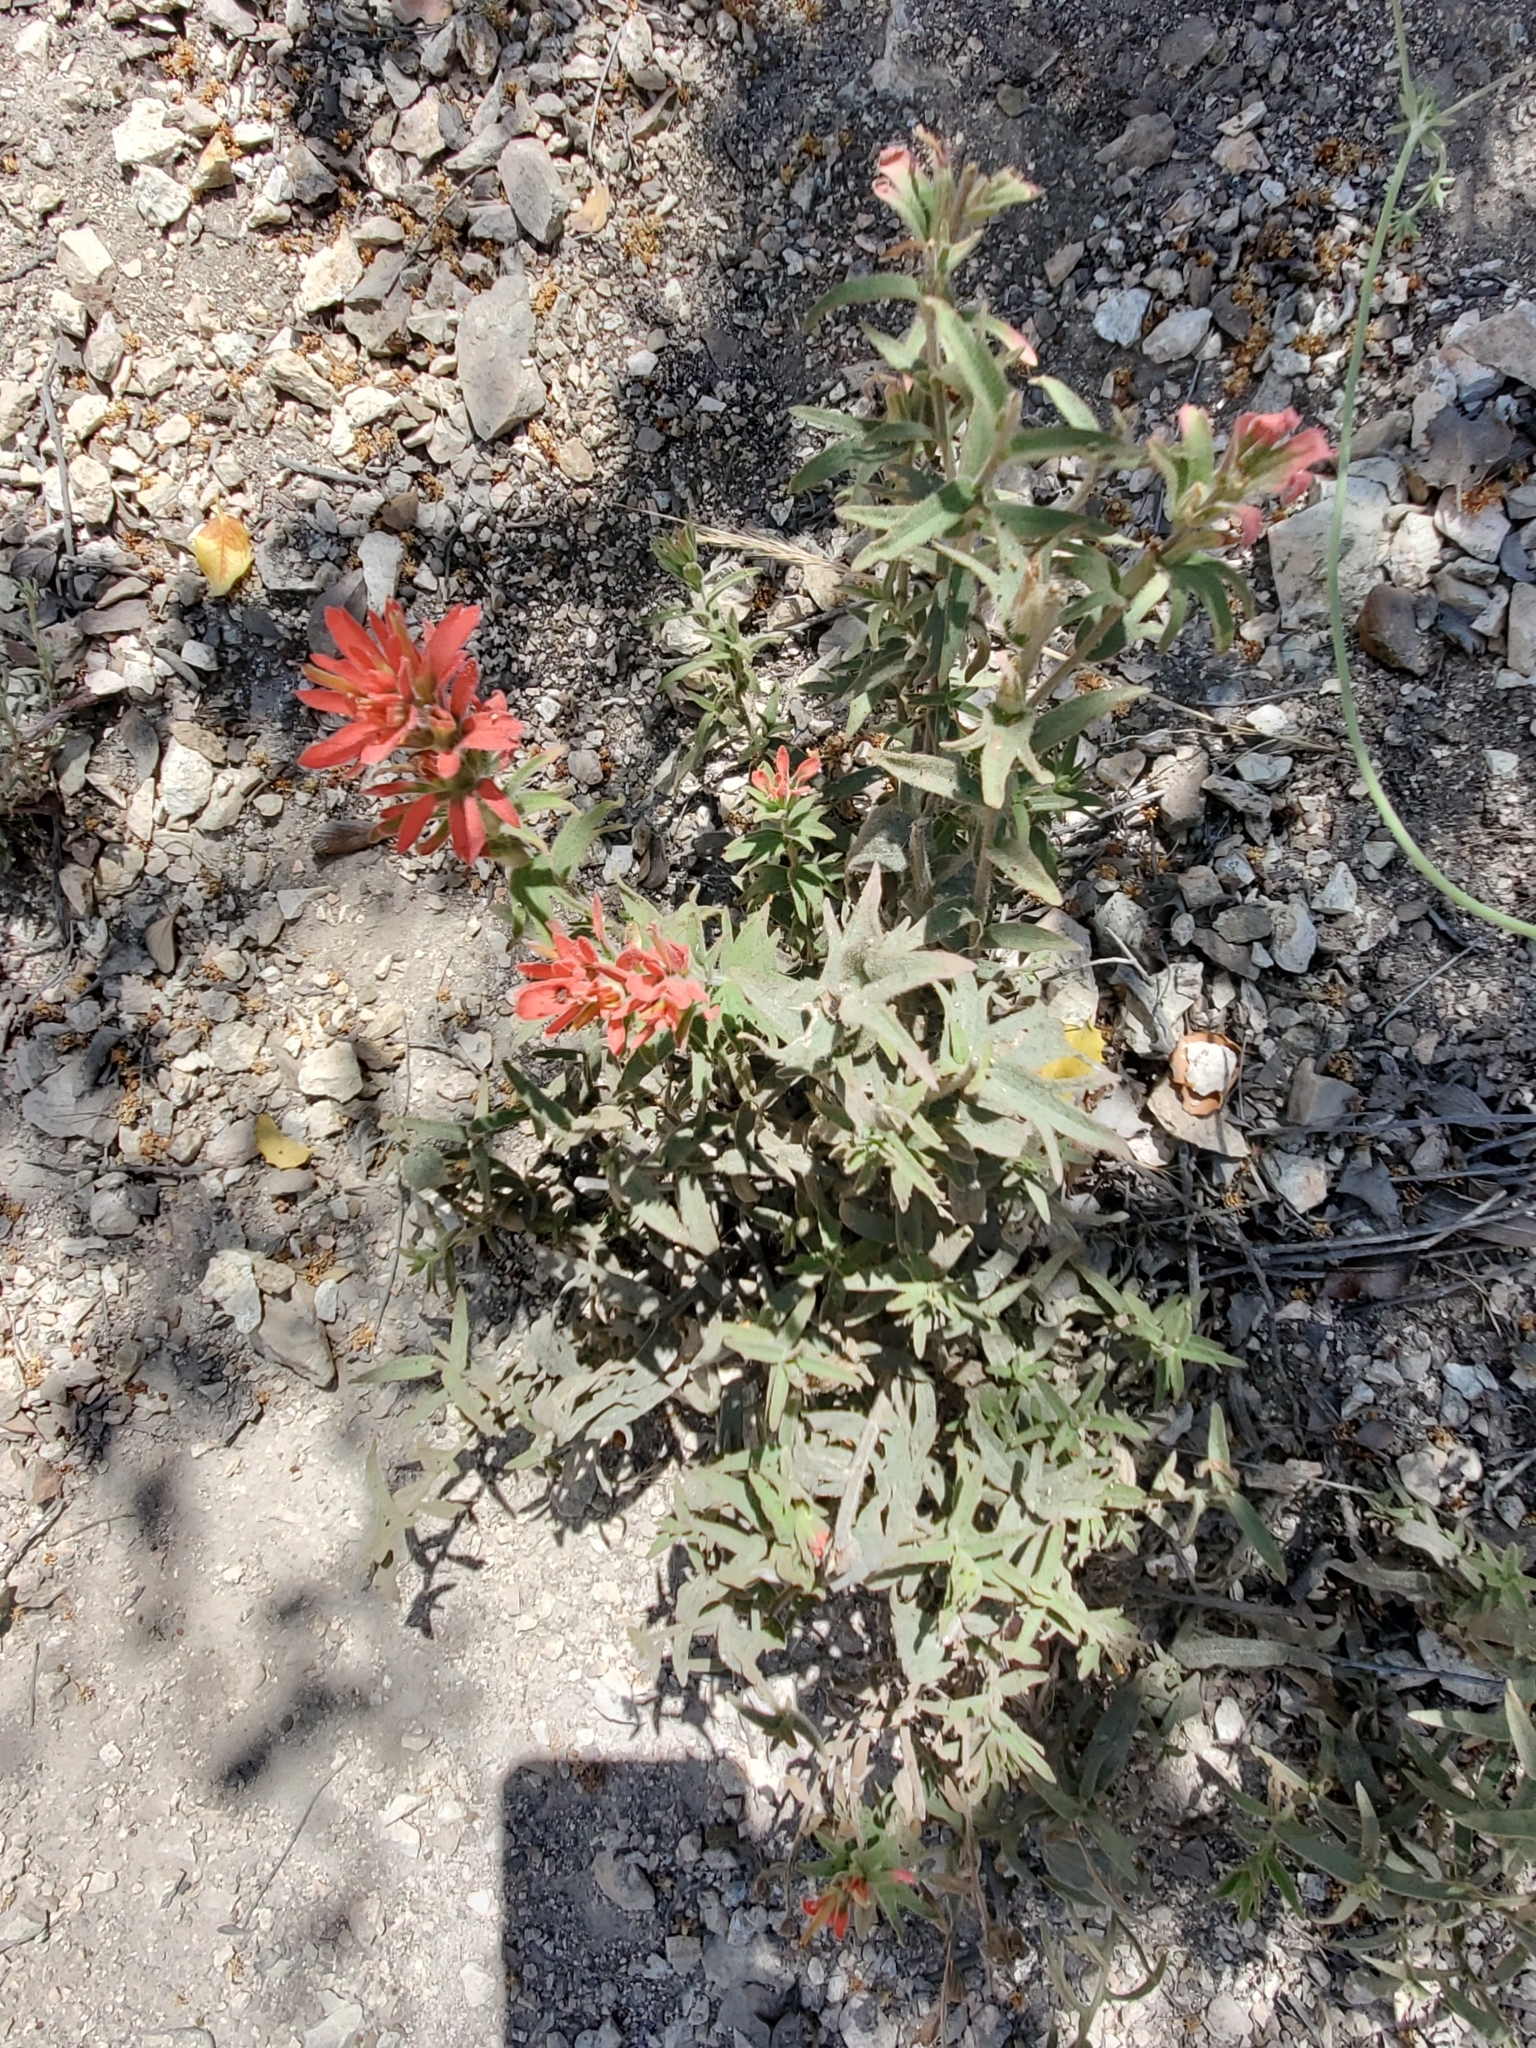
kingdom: Plantae
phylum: Tracheophyta
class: Magnoliopsida
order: Lamiales
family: Orobanchaceae
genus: Castilleja
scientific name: Castilleja martini
